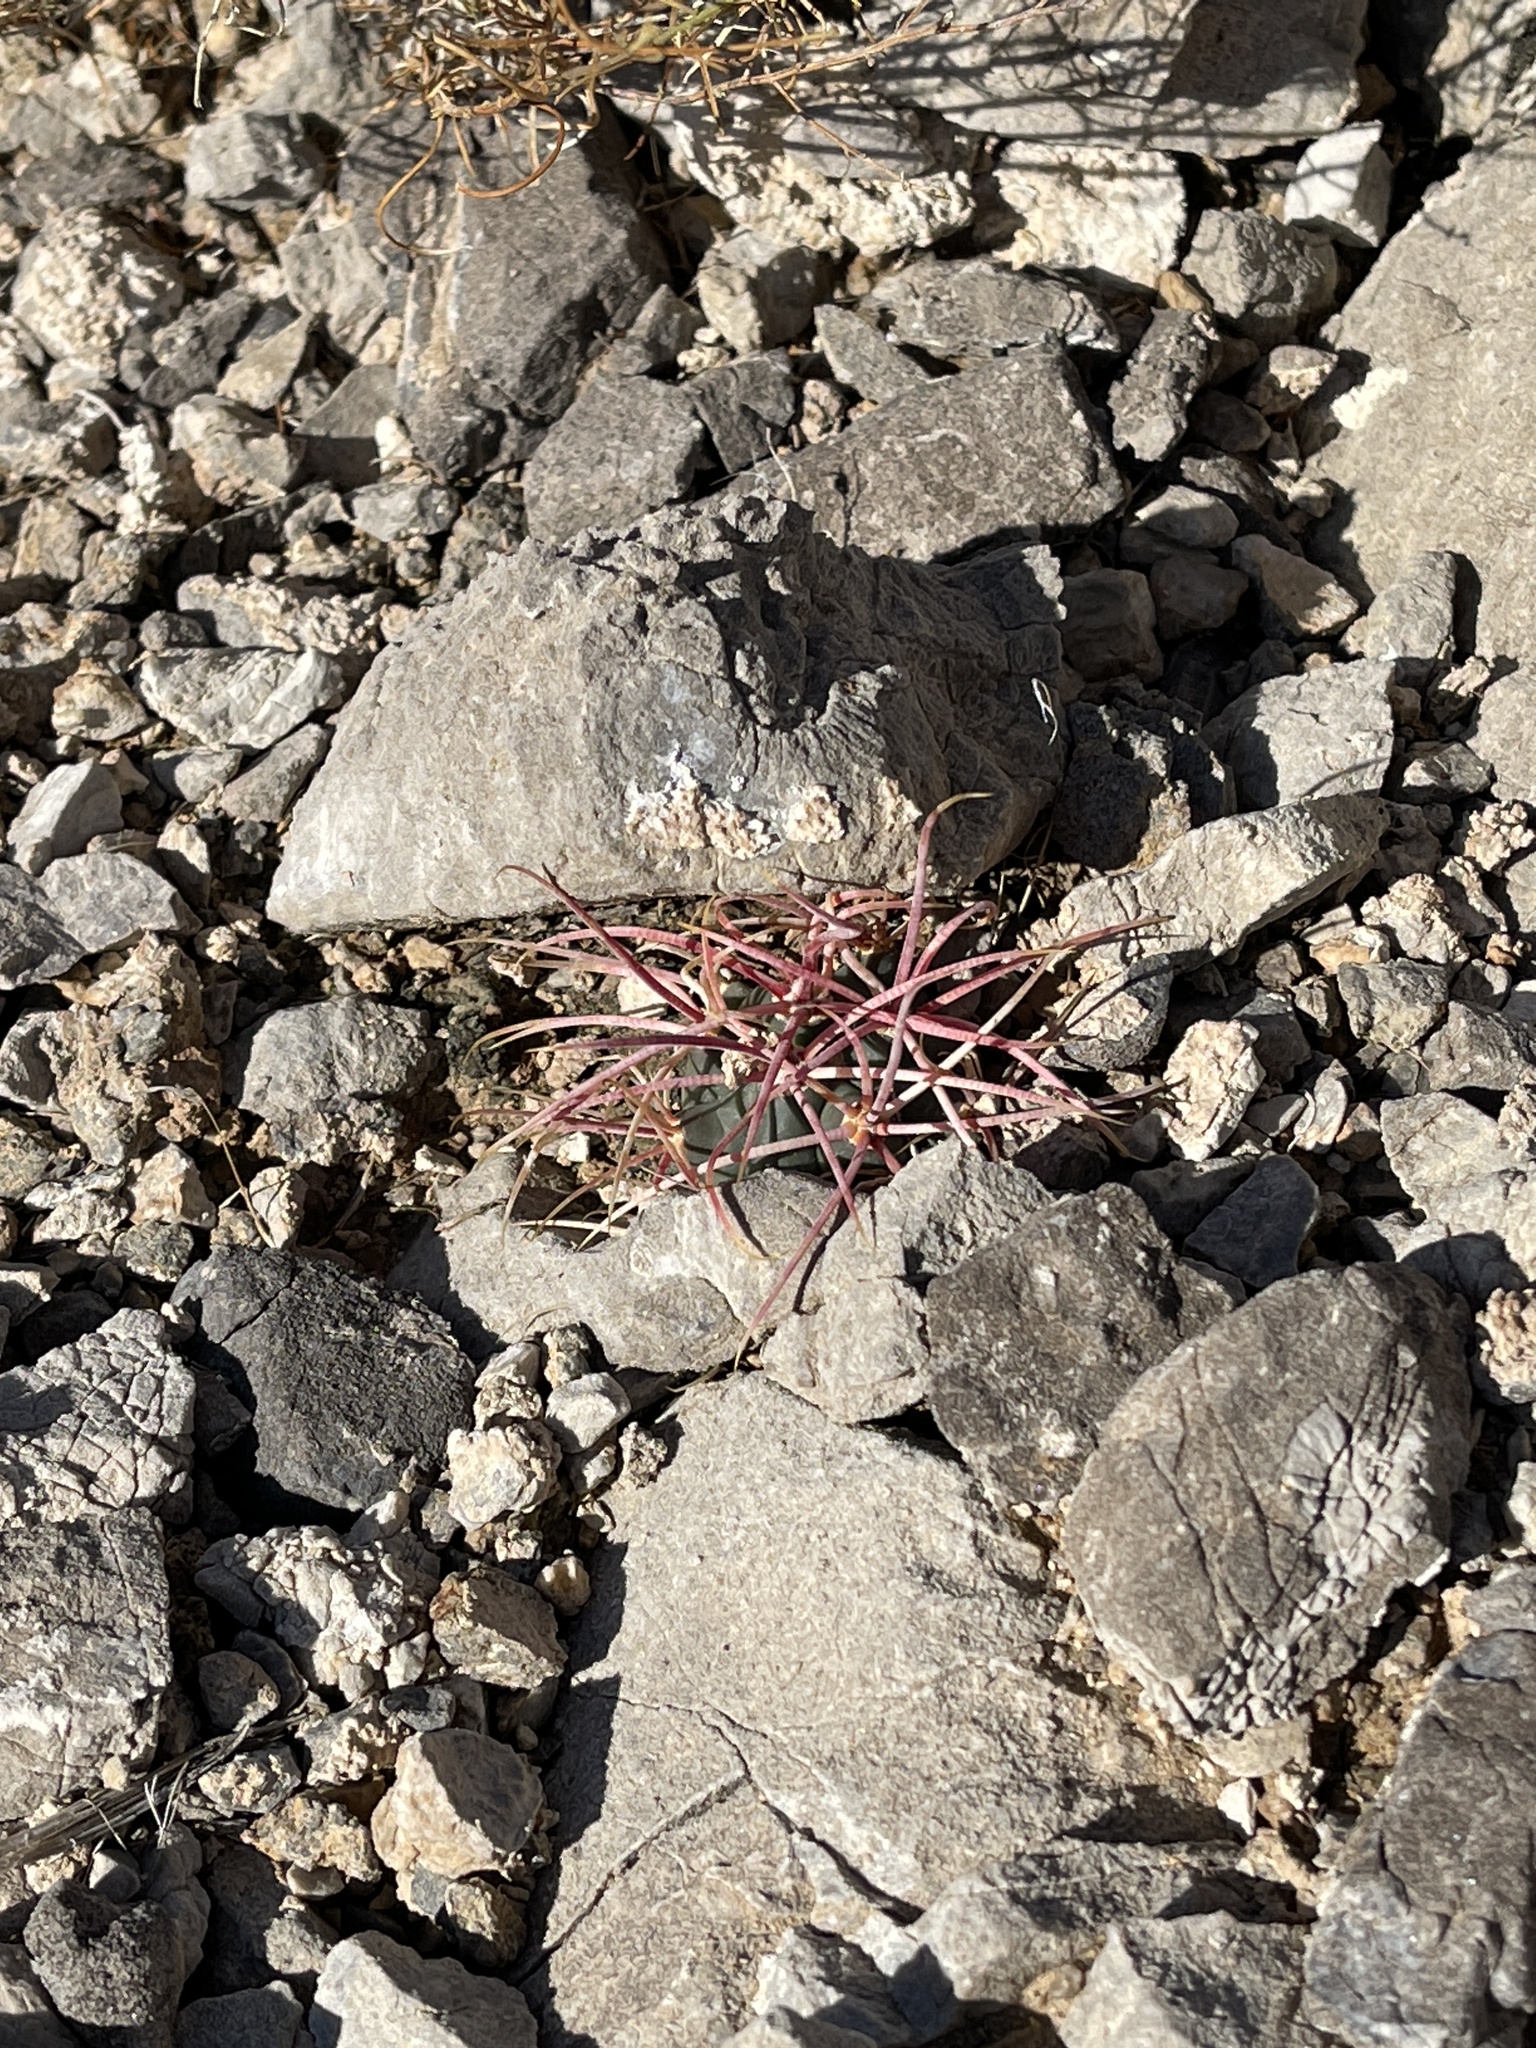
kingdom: Plantae
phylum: Tracheophyta
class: Magnoliopsida
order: Caryophyllales
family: Cactaceae
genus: Echinocactus
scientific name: Echinocactus polycephalus
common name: Cottontop cactus
